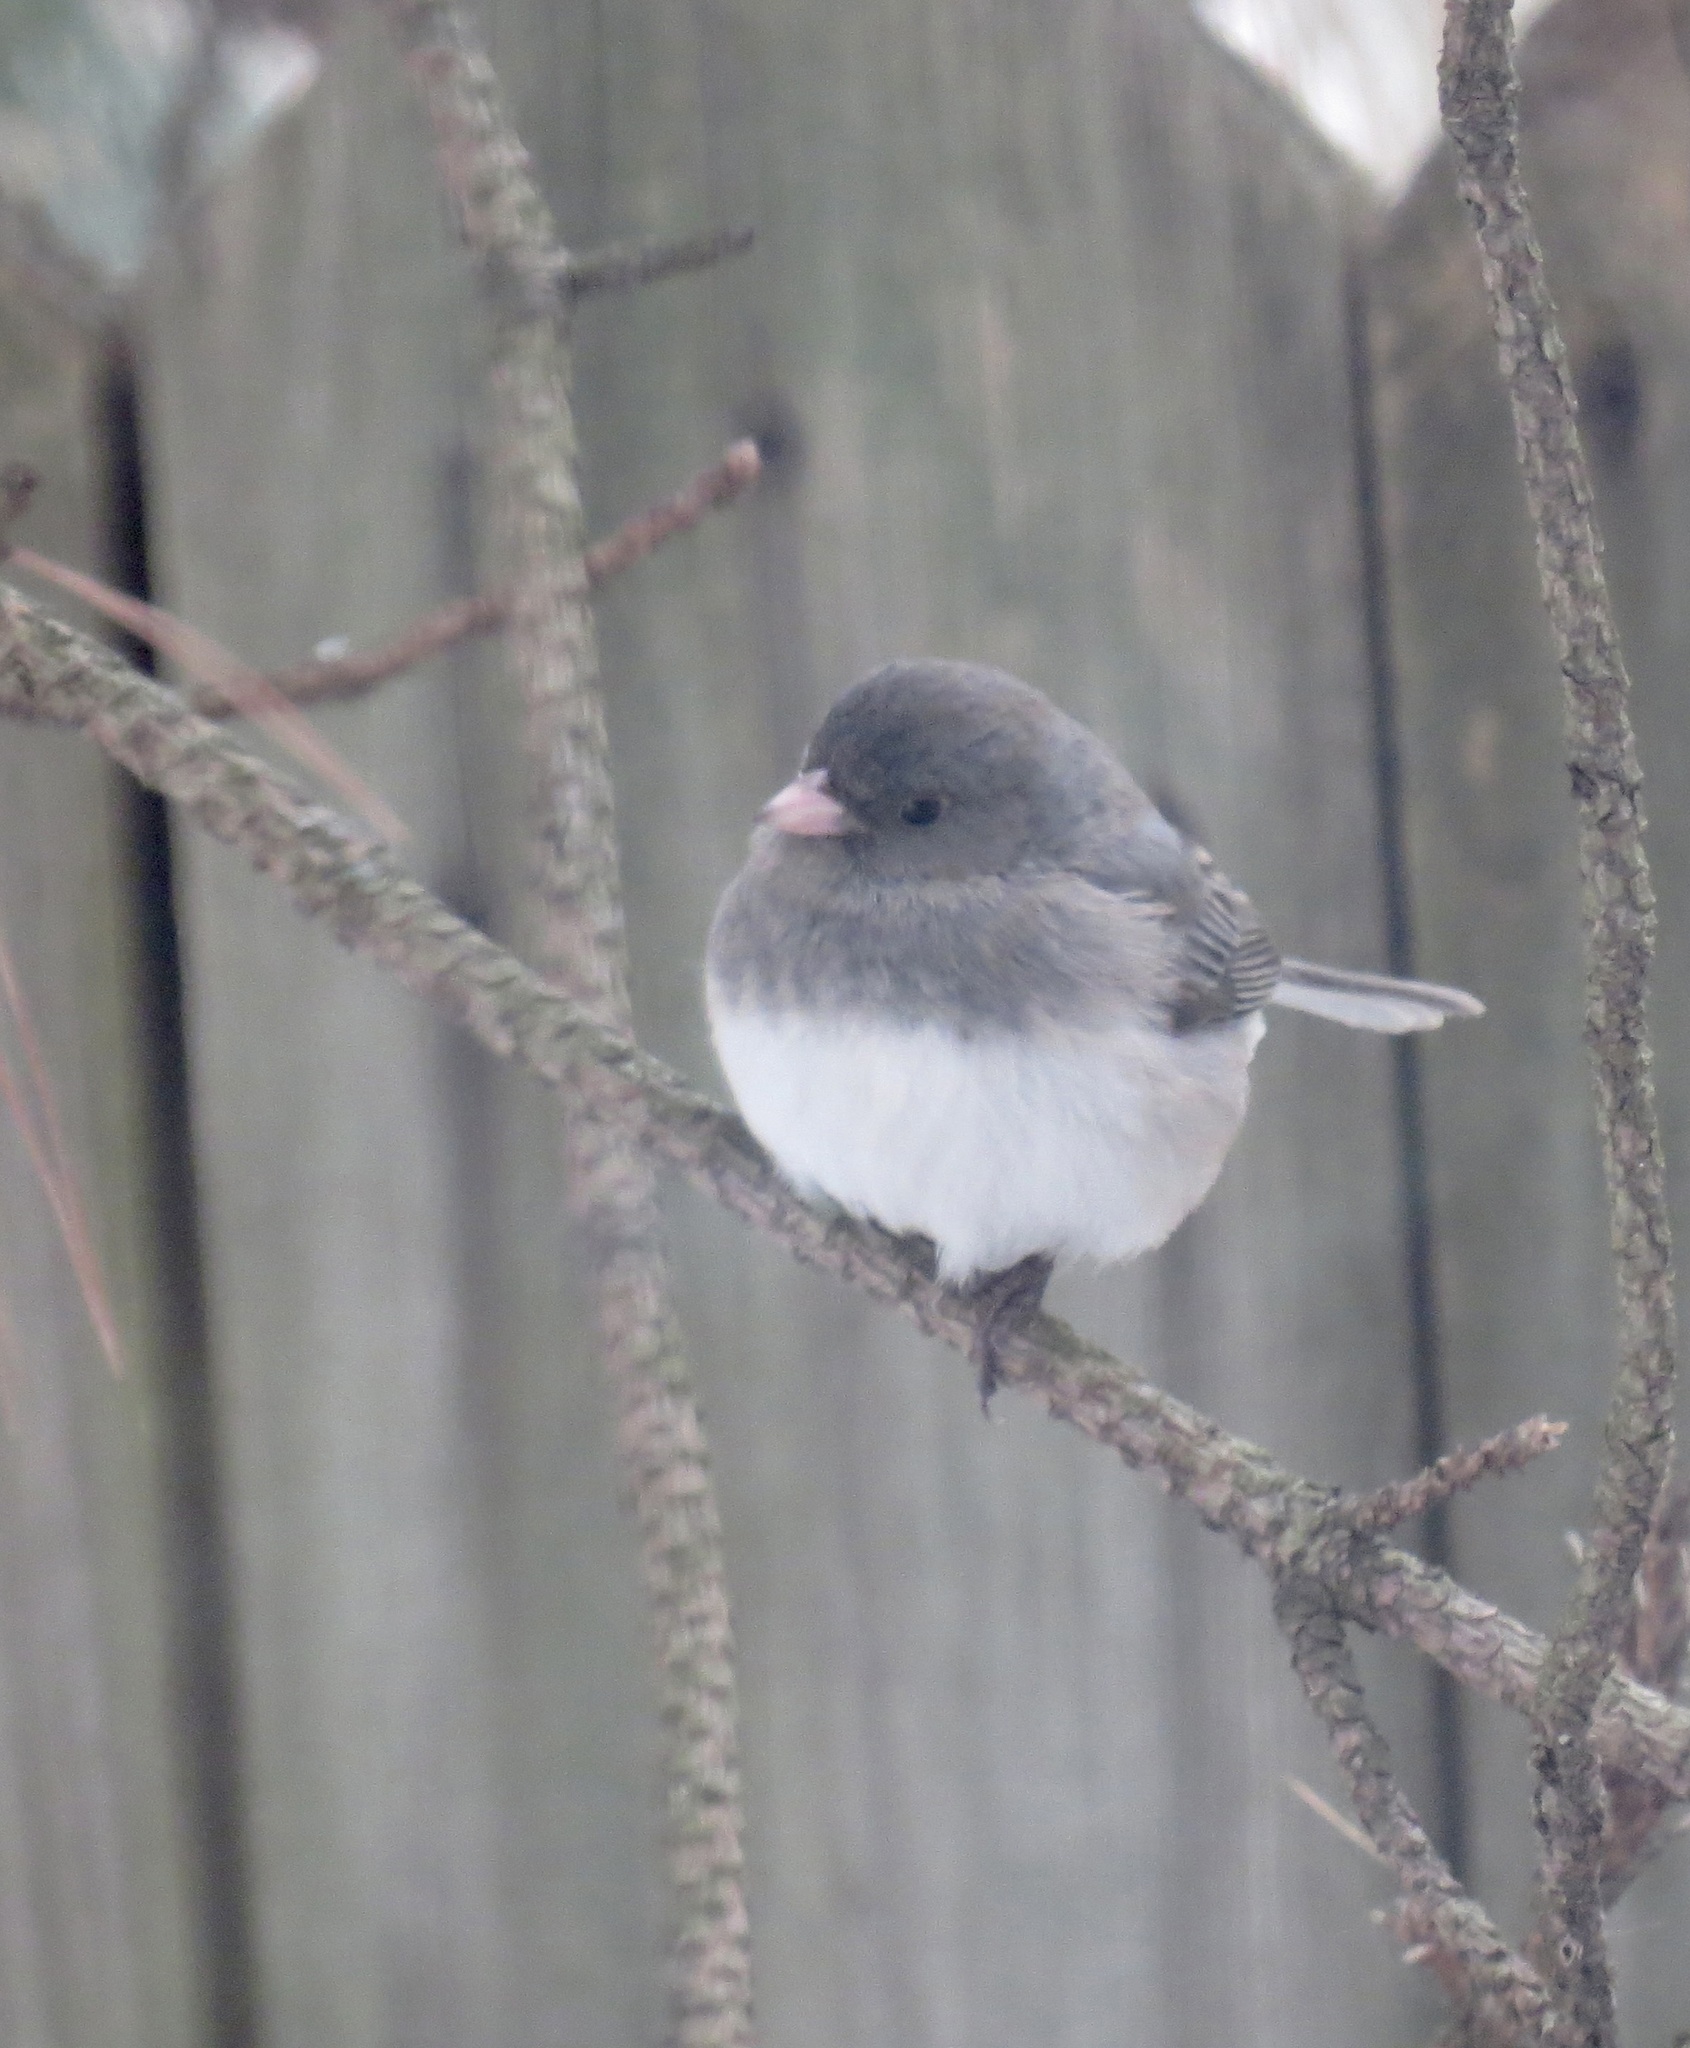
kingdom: Animalia
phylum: Chordata
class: Aves
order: Passeriformes
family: Passerellidae
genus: Junco
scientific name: Junco hyemalis
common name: Dark-eyed junco
